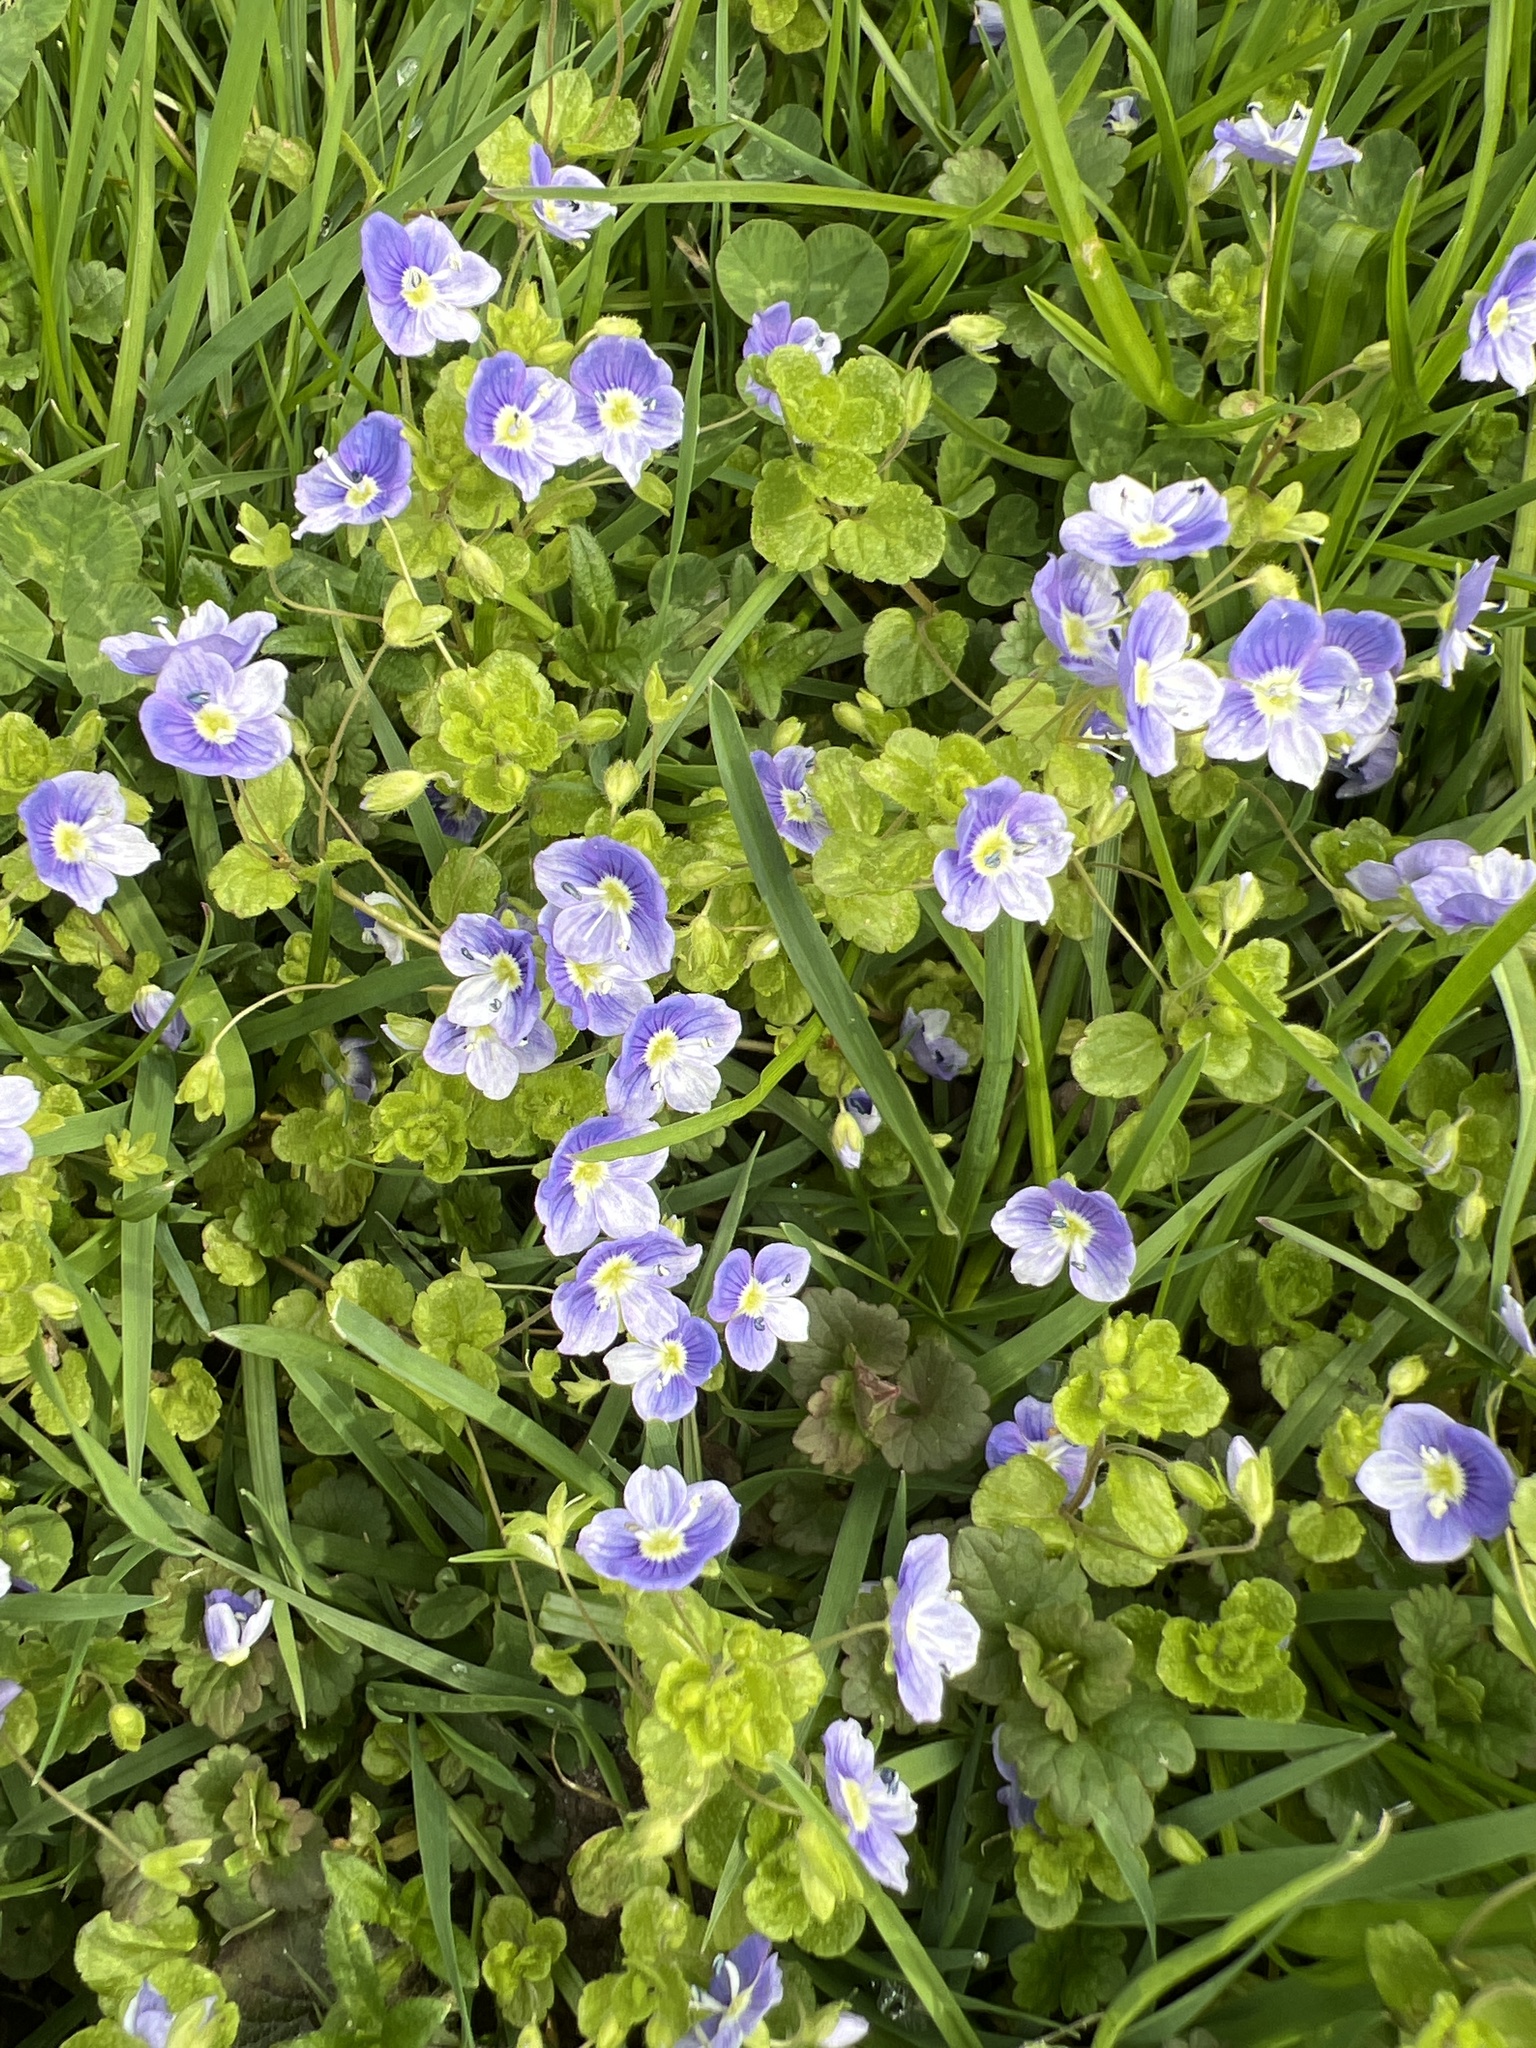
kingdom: Plantae
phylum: Tracheophyta
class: Magnoliopsida
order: Lamiales
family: Plantaginaceae
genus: Veronica
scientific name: Veronica filiformis
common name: Slender speedwell
